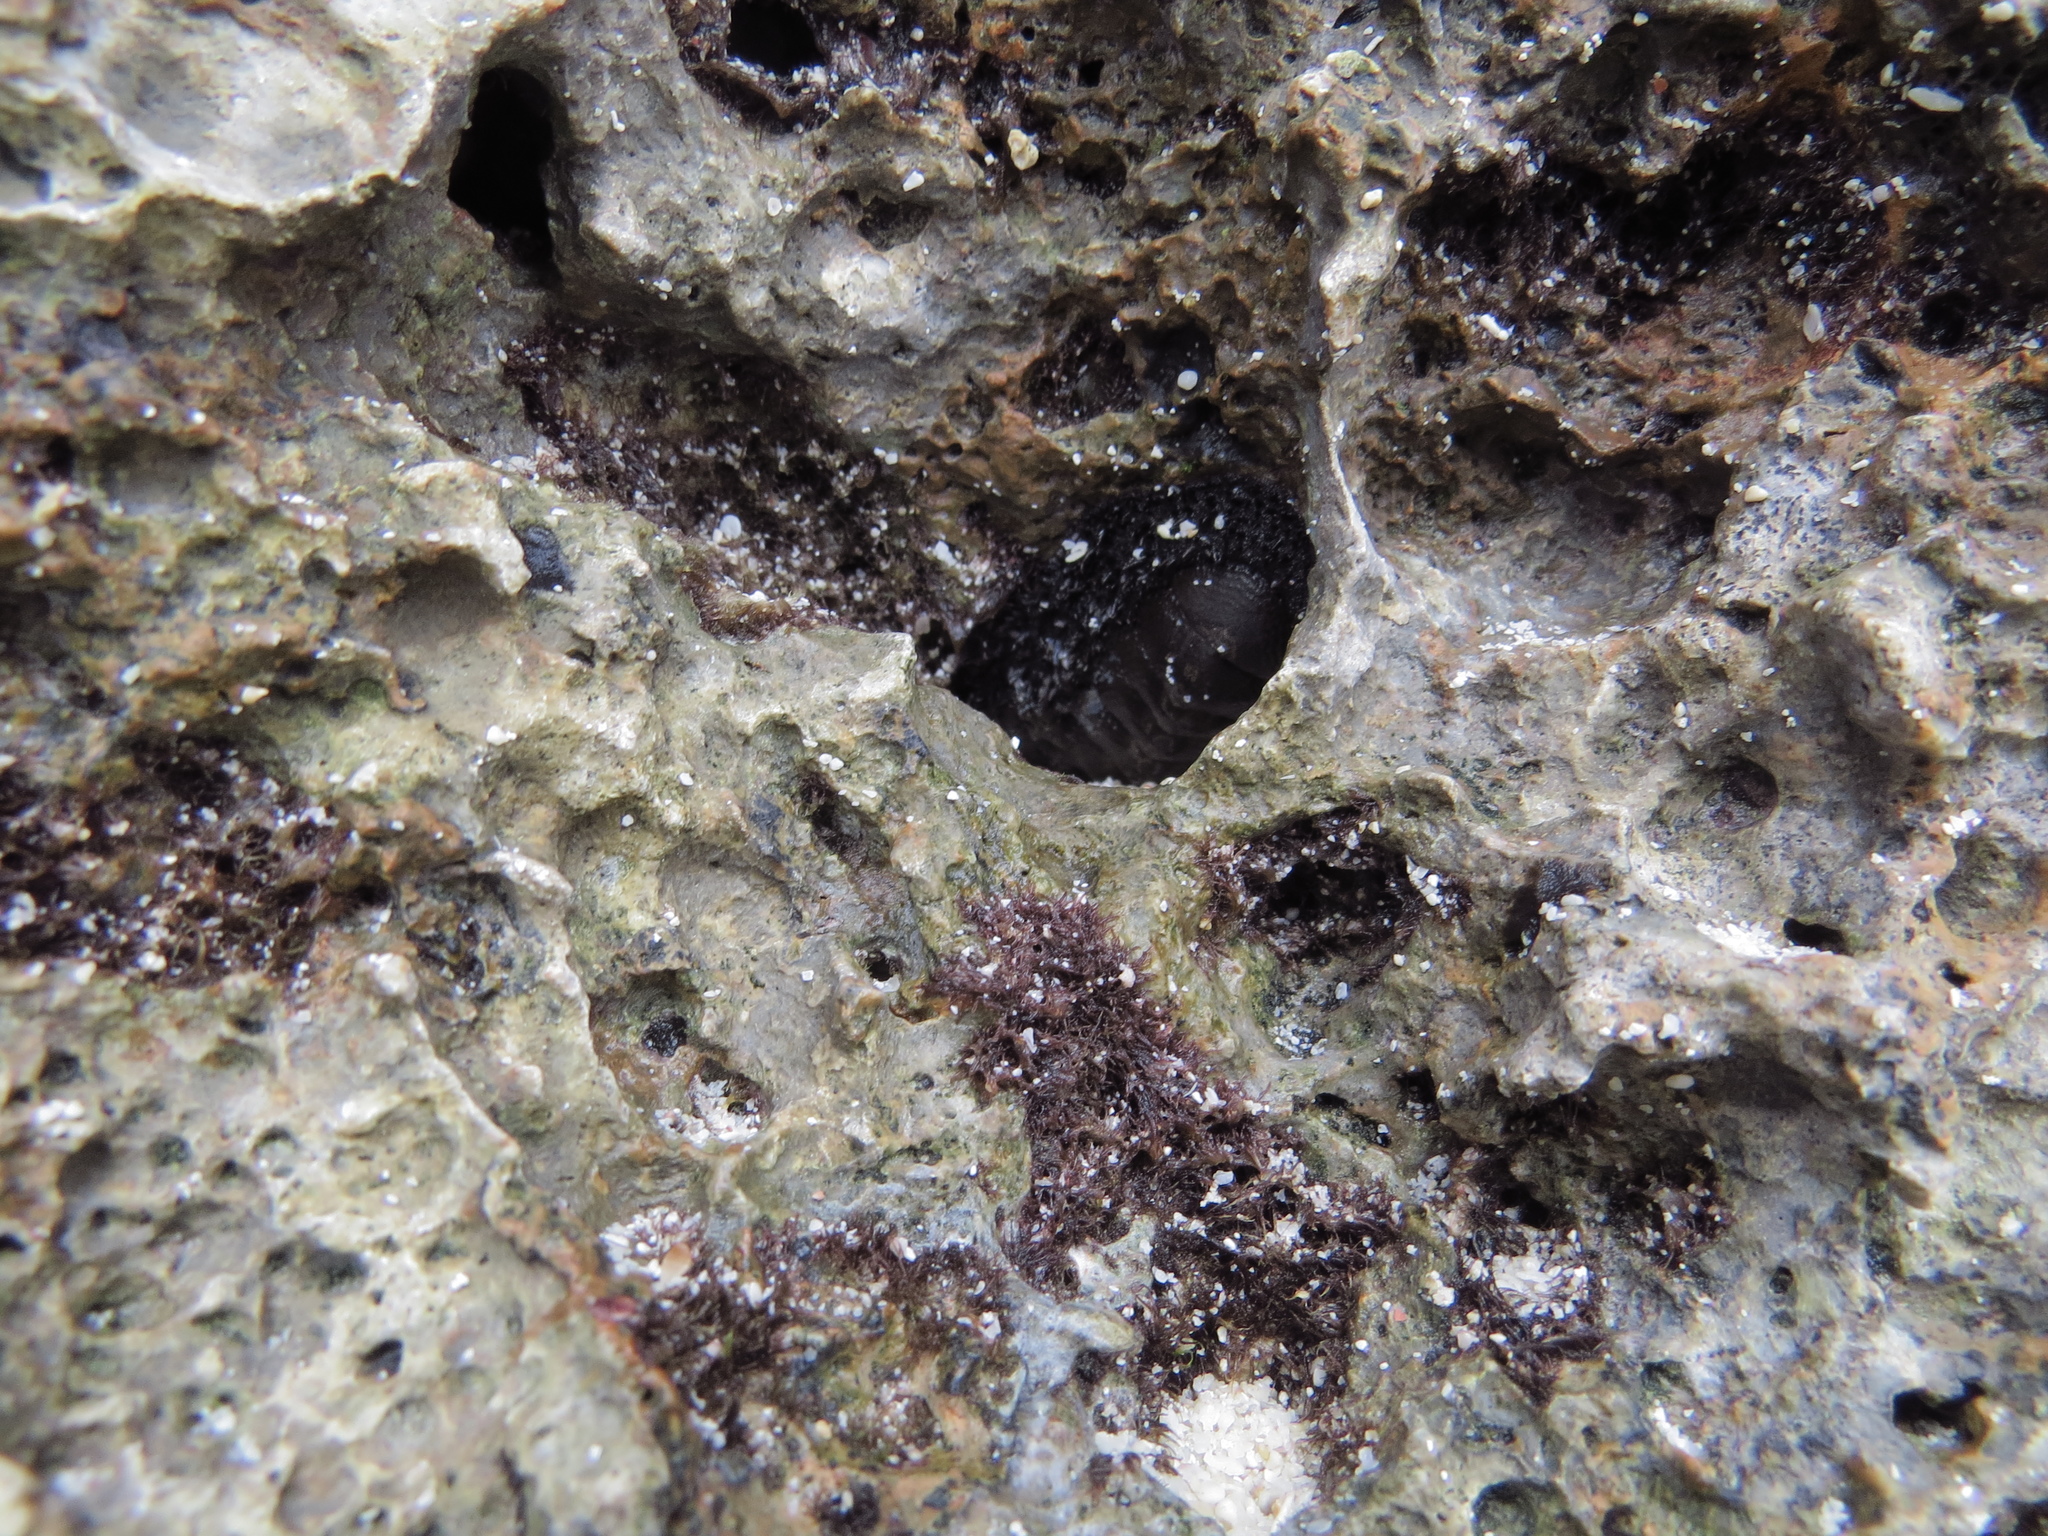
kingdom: Animalia
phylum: Mollusca
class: Polyplacophora
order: Chitonida
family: Chitonidae
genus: Acanthopleura
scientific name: Acanthopleura vaillantii
